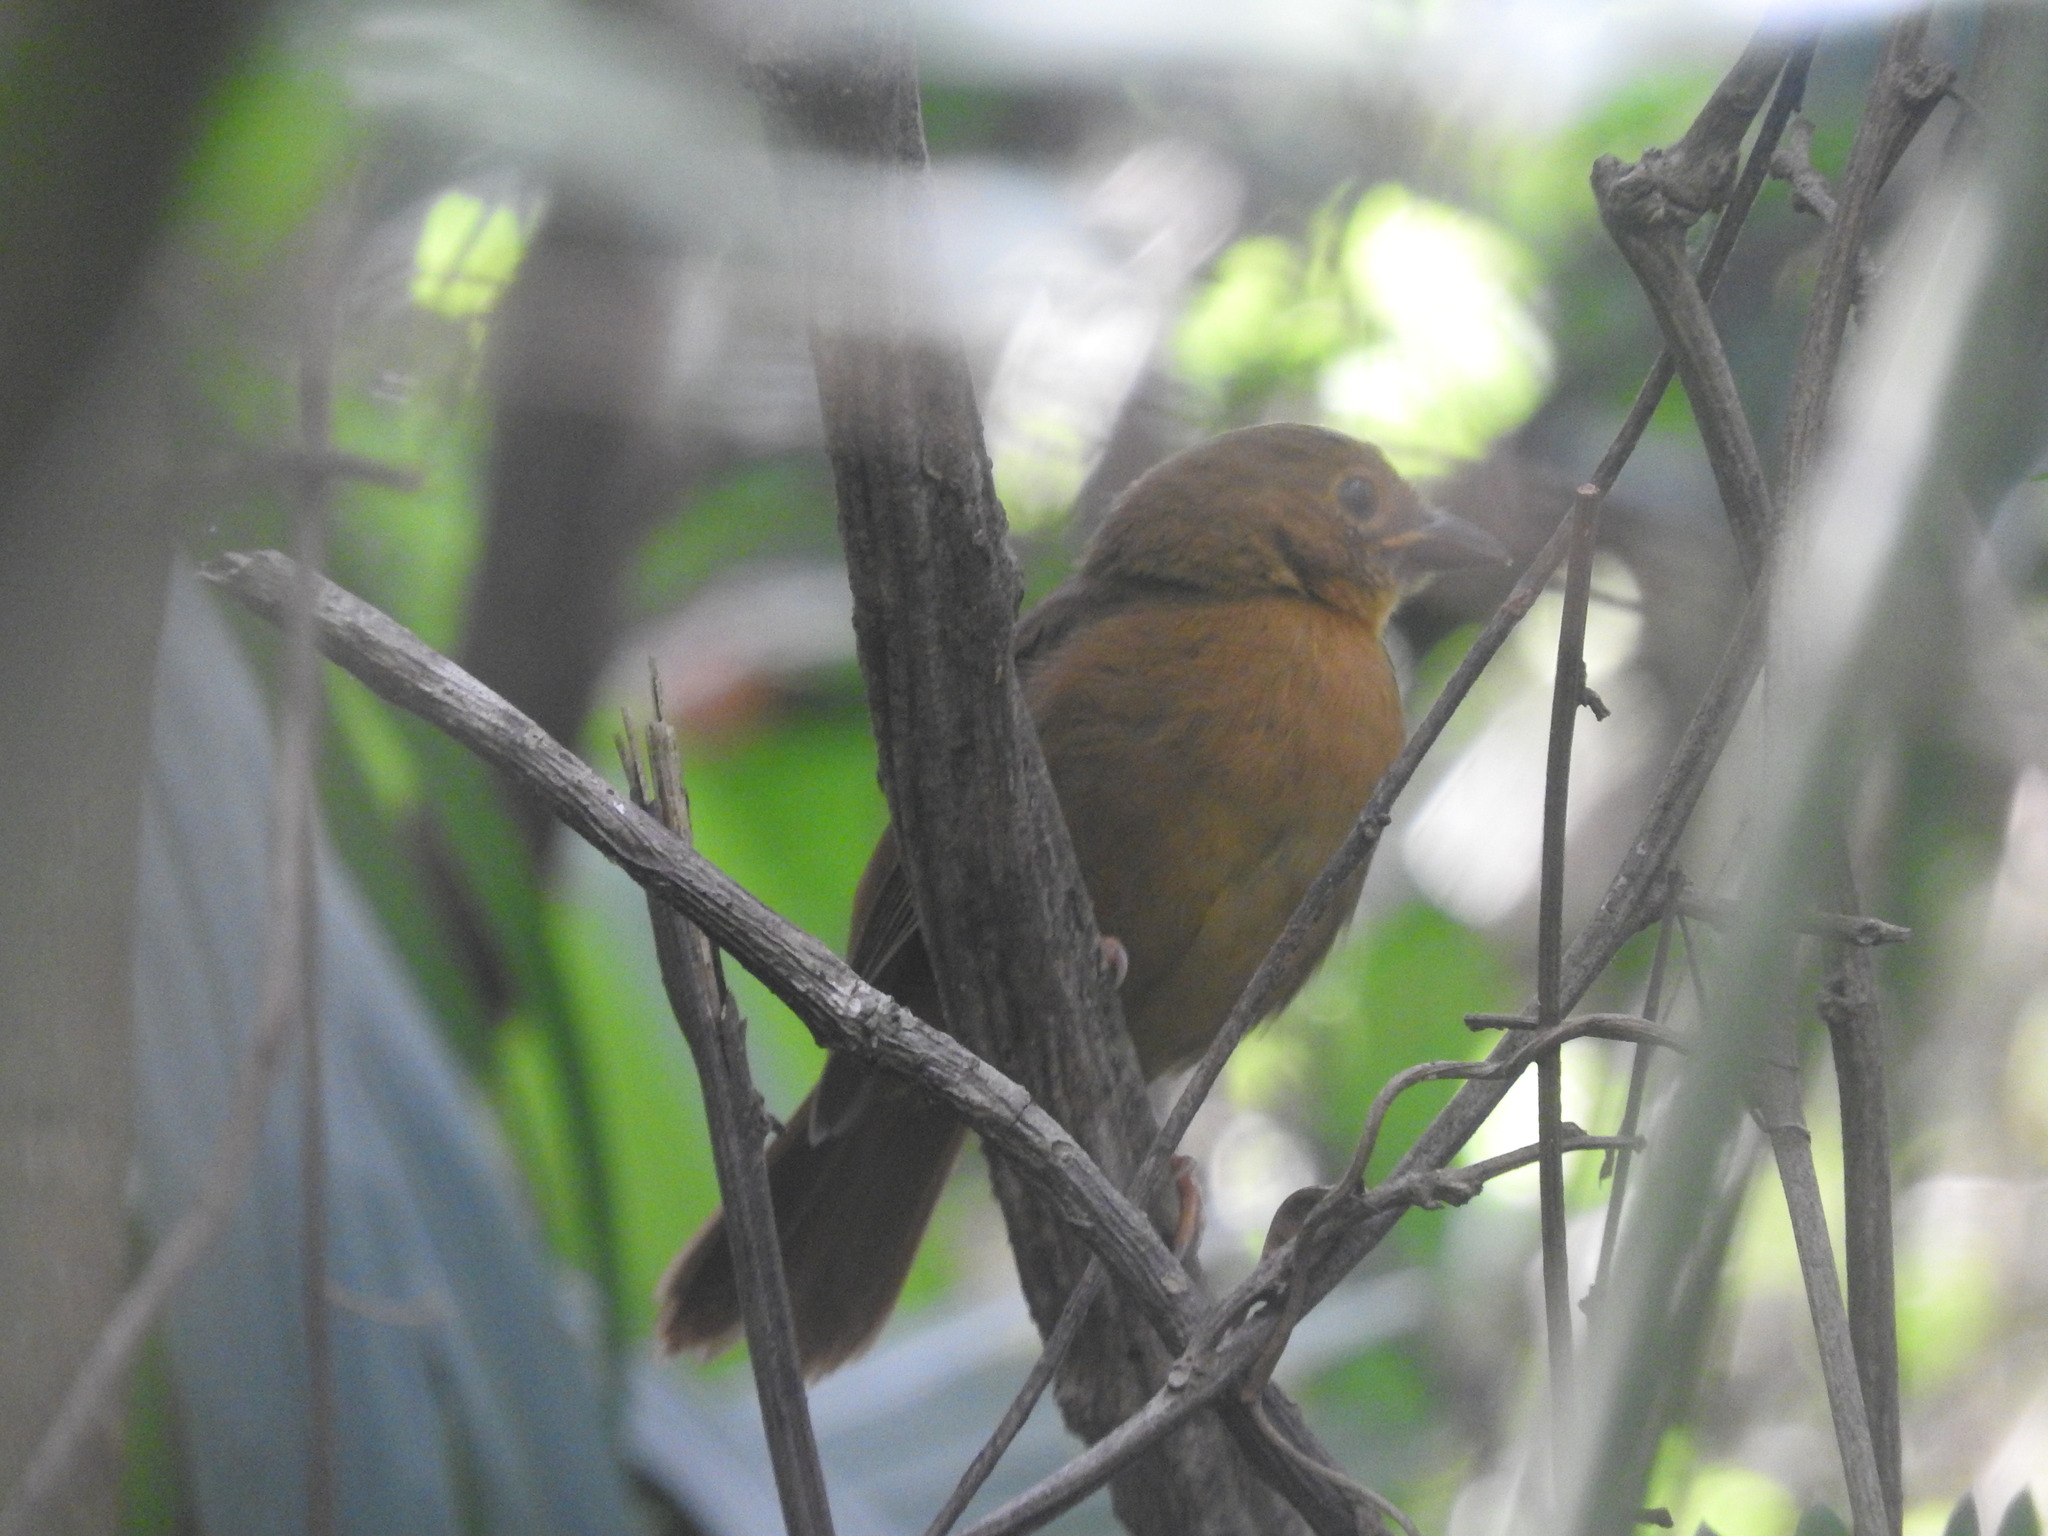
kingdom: Animalia
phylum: Chordata
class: Aves
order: Passeriformes
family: Cardinalidae
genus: Habia
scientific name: Habia fuscicauda
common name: Red-throated ant-tanager
